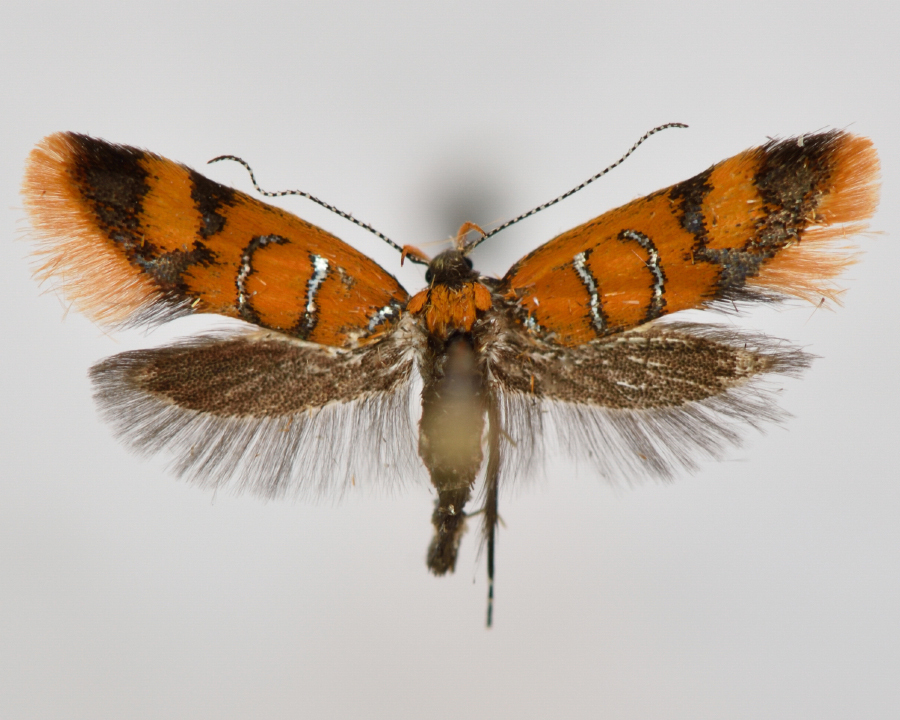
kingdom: Animalia
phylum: Arthropoda
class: Insecta
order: Lepidoptera
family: Oecophoridae
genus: Schiffermuelleria
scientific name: Schiffermuelleria procerella
